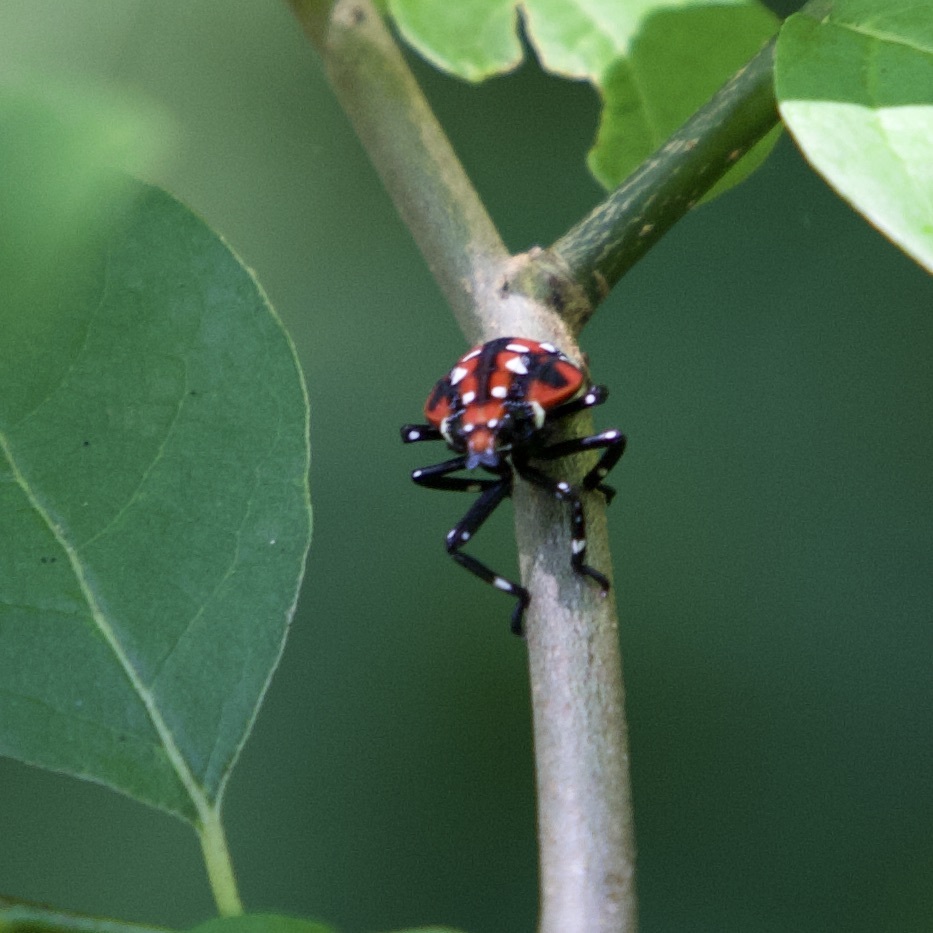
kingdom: Animalia
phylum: Arthropoda
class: Insecta
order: Hemiptera
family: Fulgoridae
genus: Lycorma
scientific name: Lycorma delicatula
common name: Spotted lanternfly
